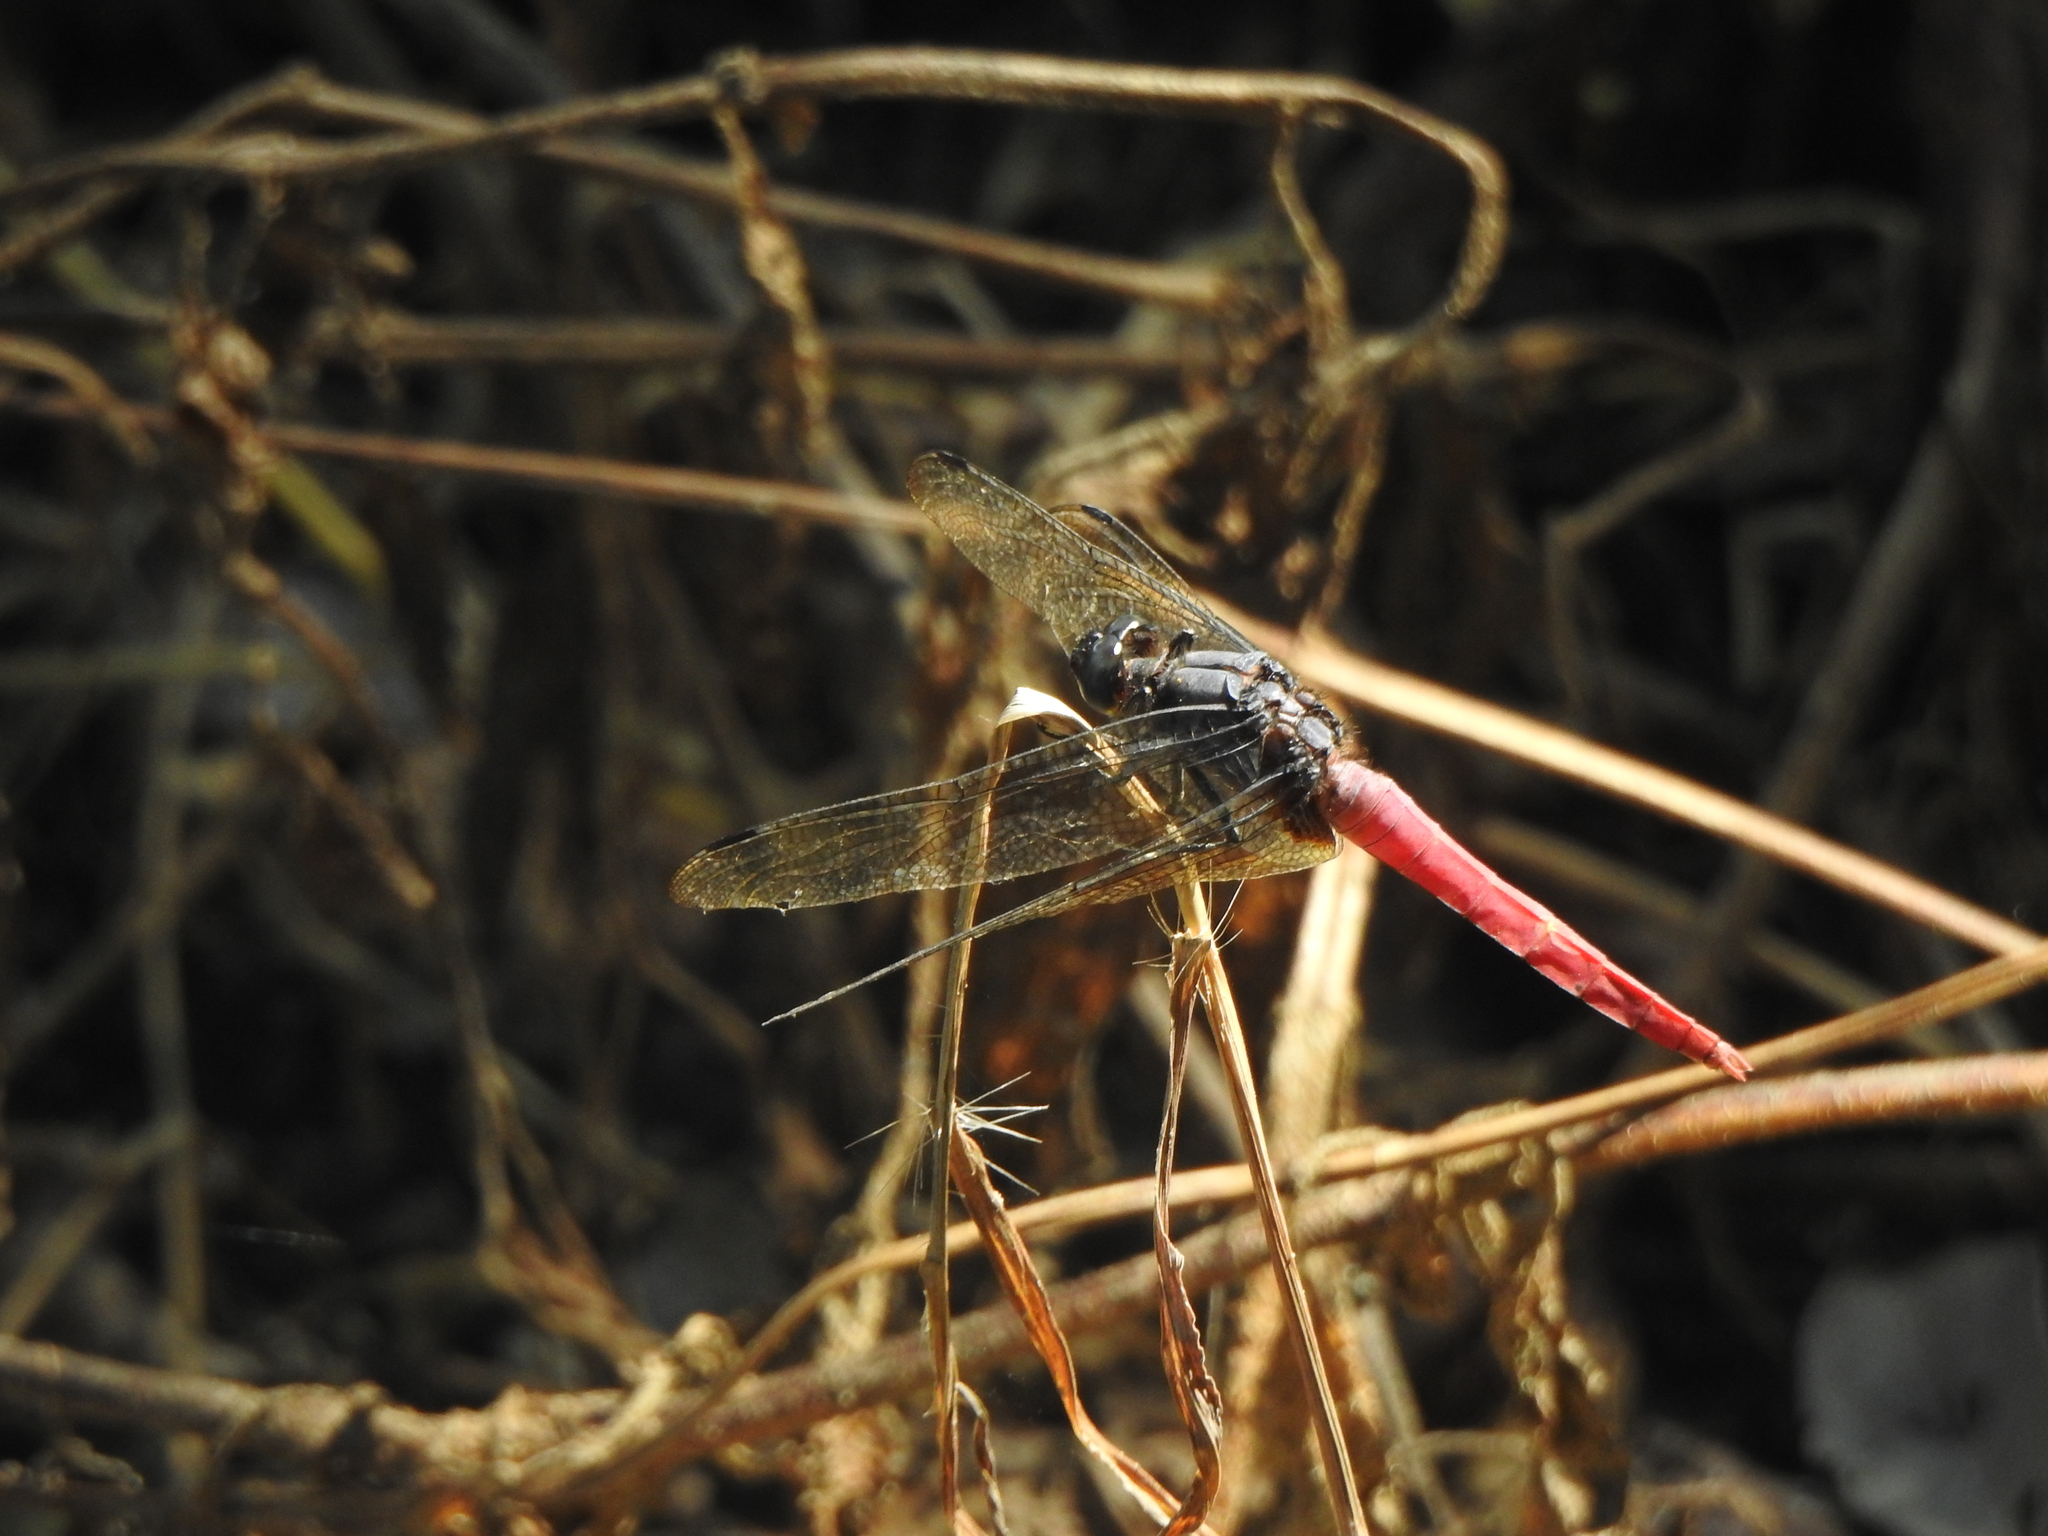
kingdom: Animalia
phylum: Arthropoda
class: Insecta
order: Odonata
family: Libellulidae
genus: Orthetrum
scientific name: Orthetrum pruinosum
